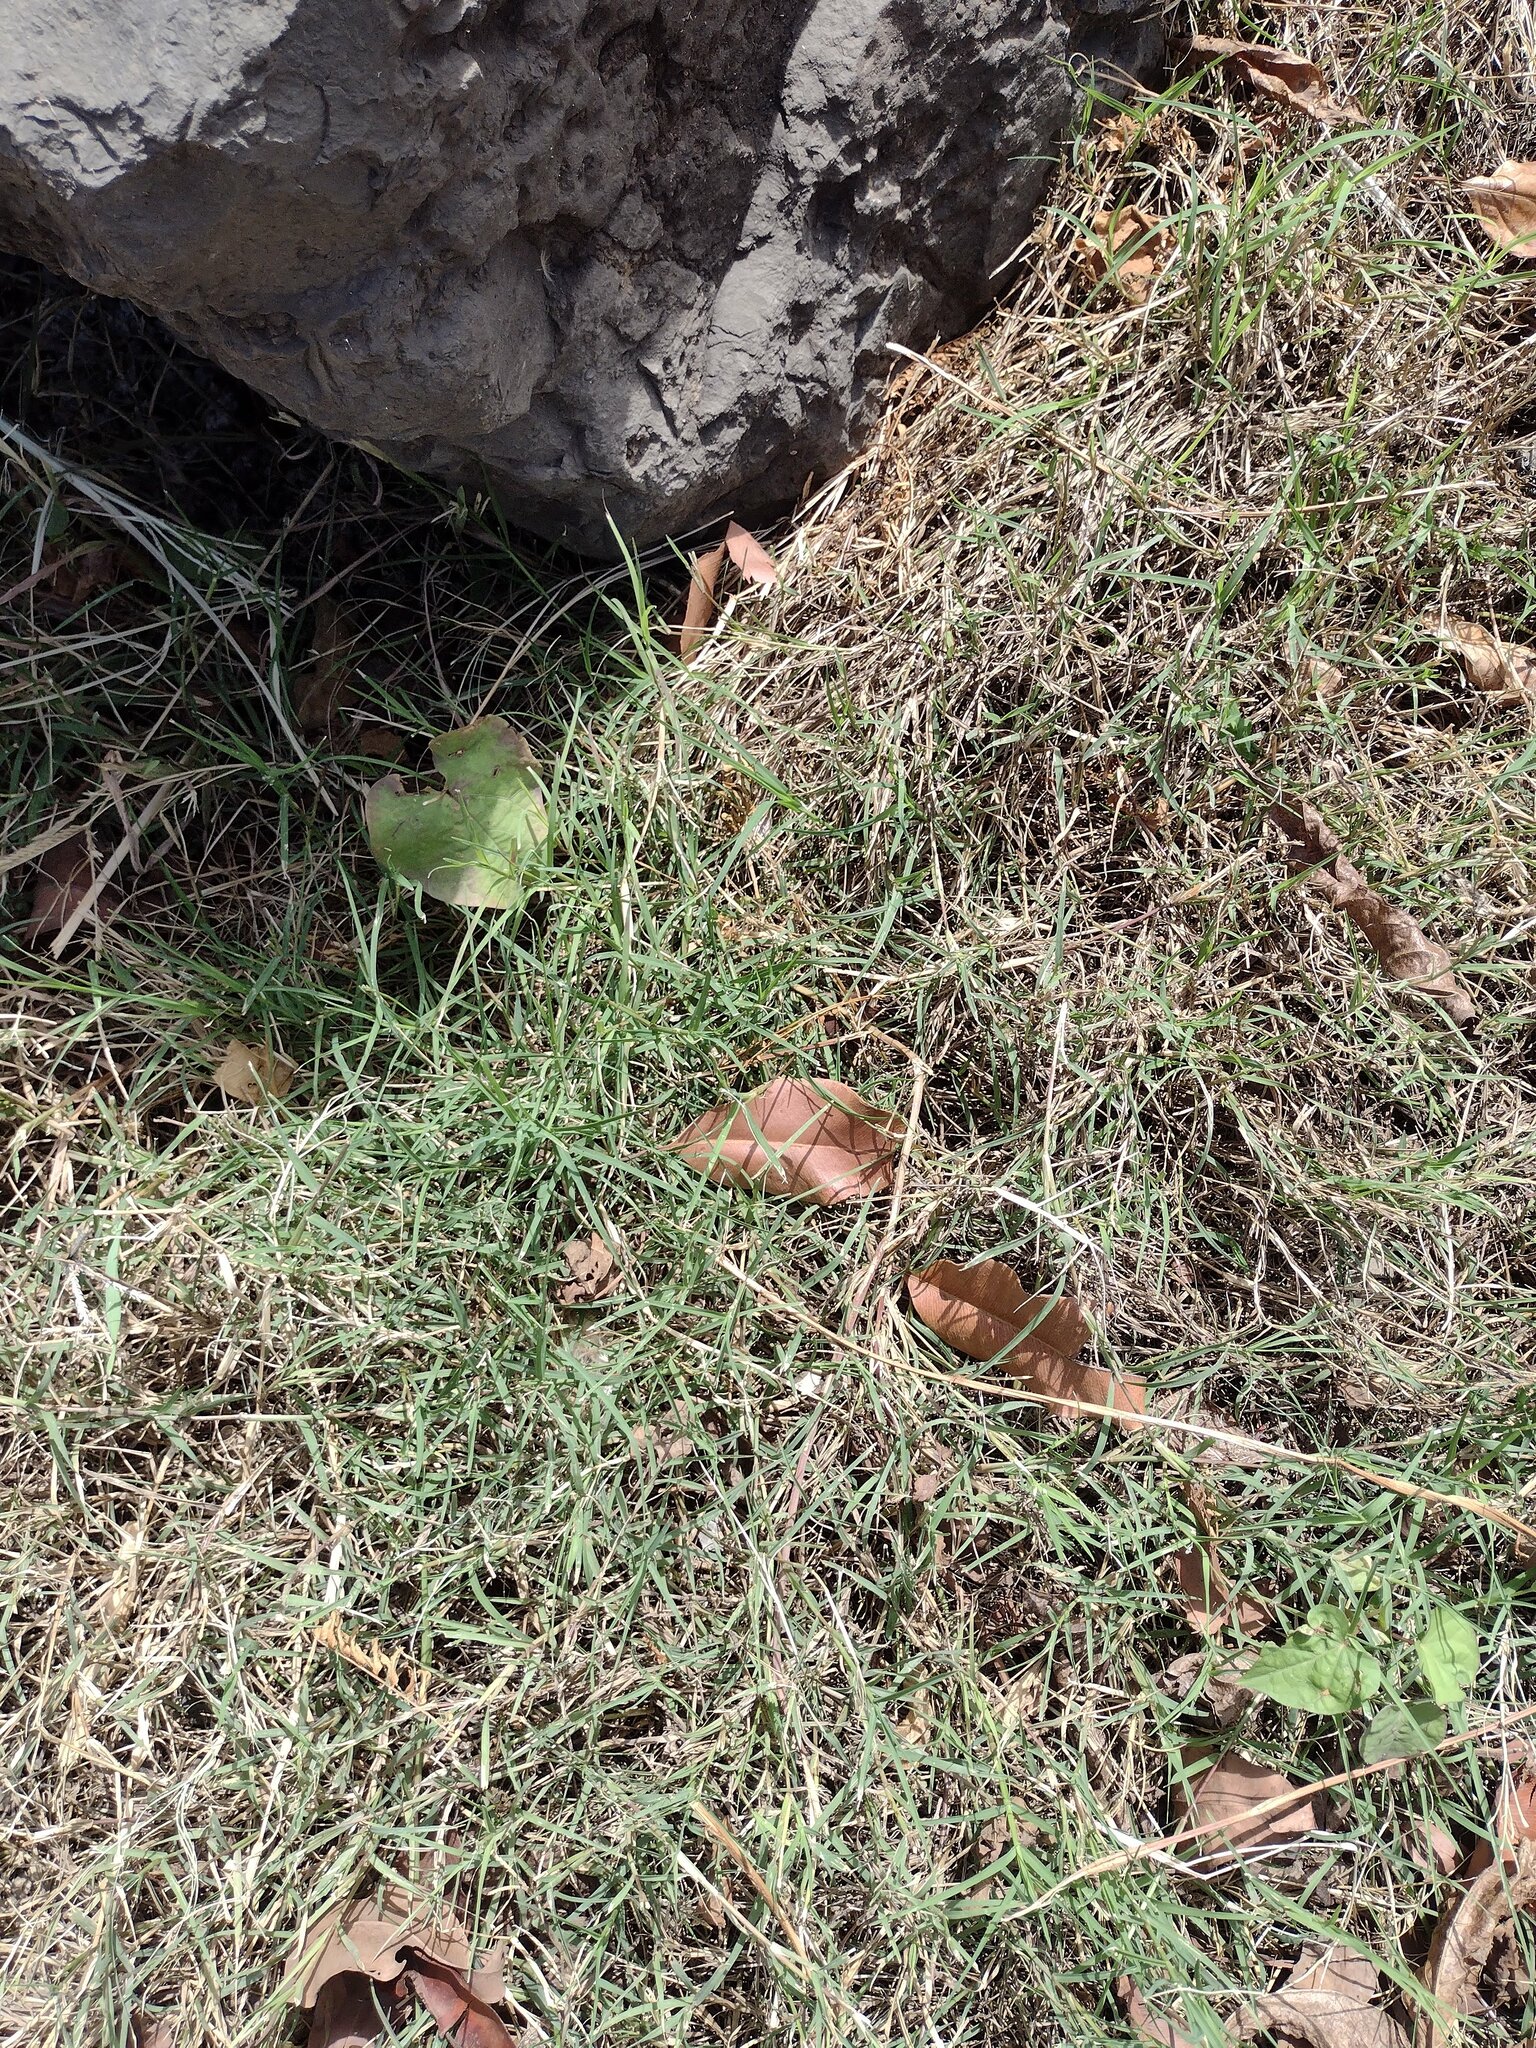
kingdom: Plantae
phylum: Tracheophyta
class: Liliopsida
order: Poales
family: Poaceae
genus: Cynodon
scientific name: Cynodon dactylon
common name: Bermuda grass
